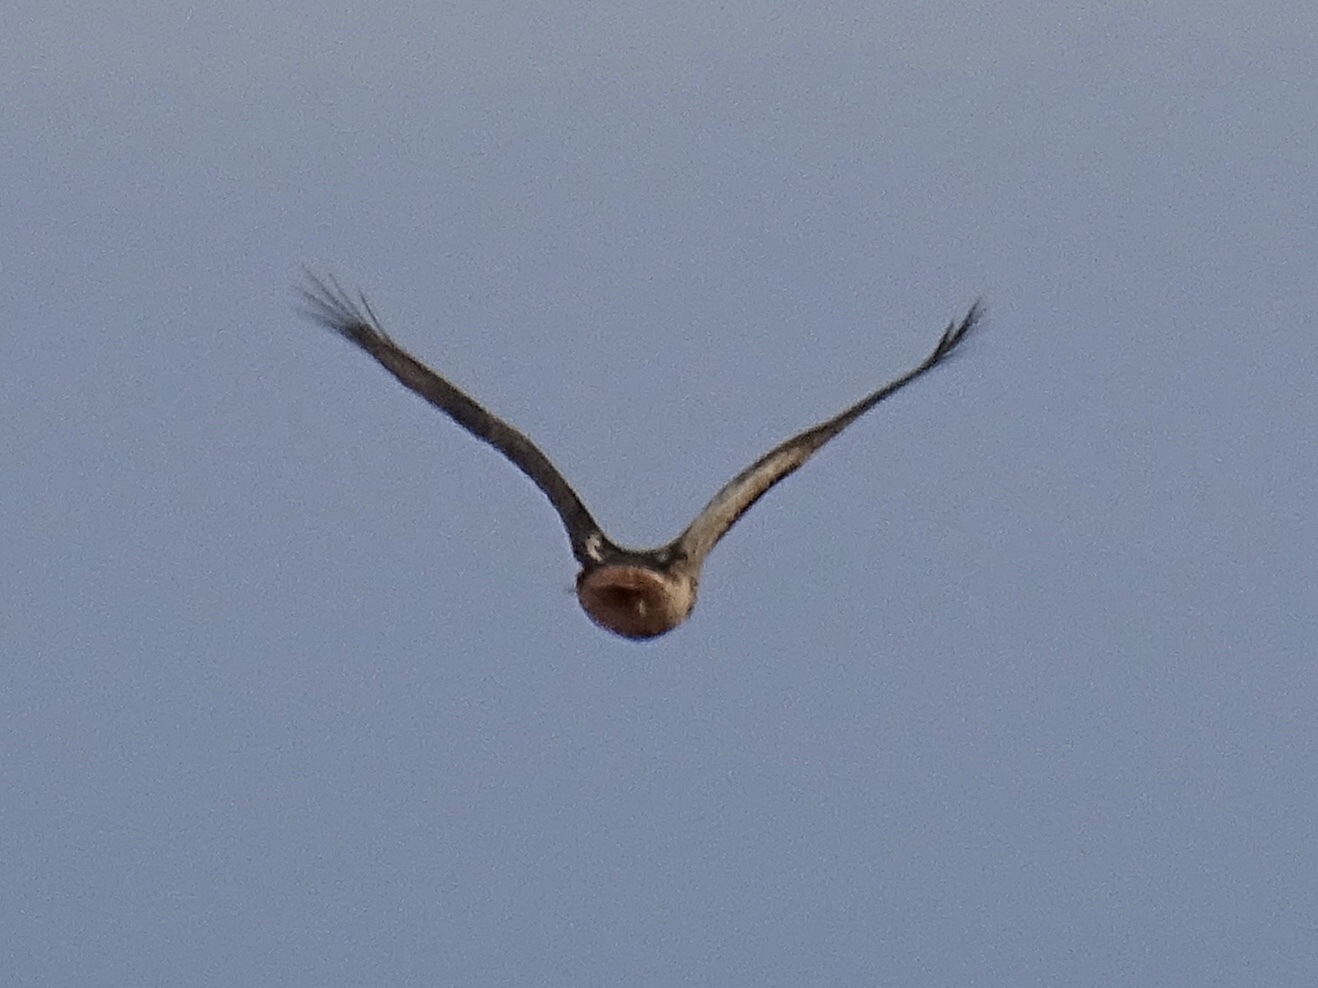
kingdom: Animalia
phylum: Chordata
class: Aves
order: Accipitriformes
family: Accipitridae
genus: Buteo
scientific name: Buteo jamaicensis
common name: Red-tailed hawk
